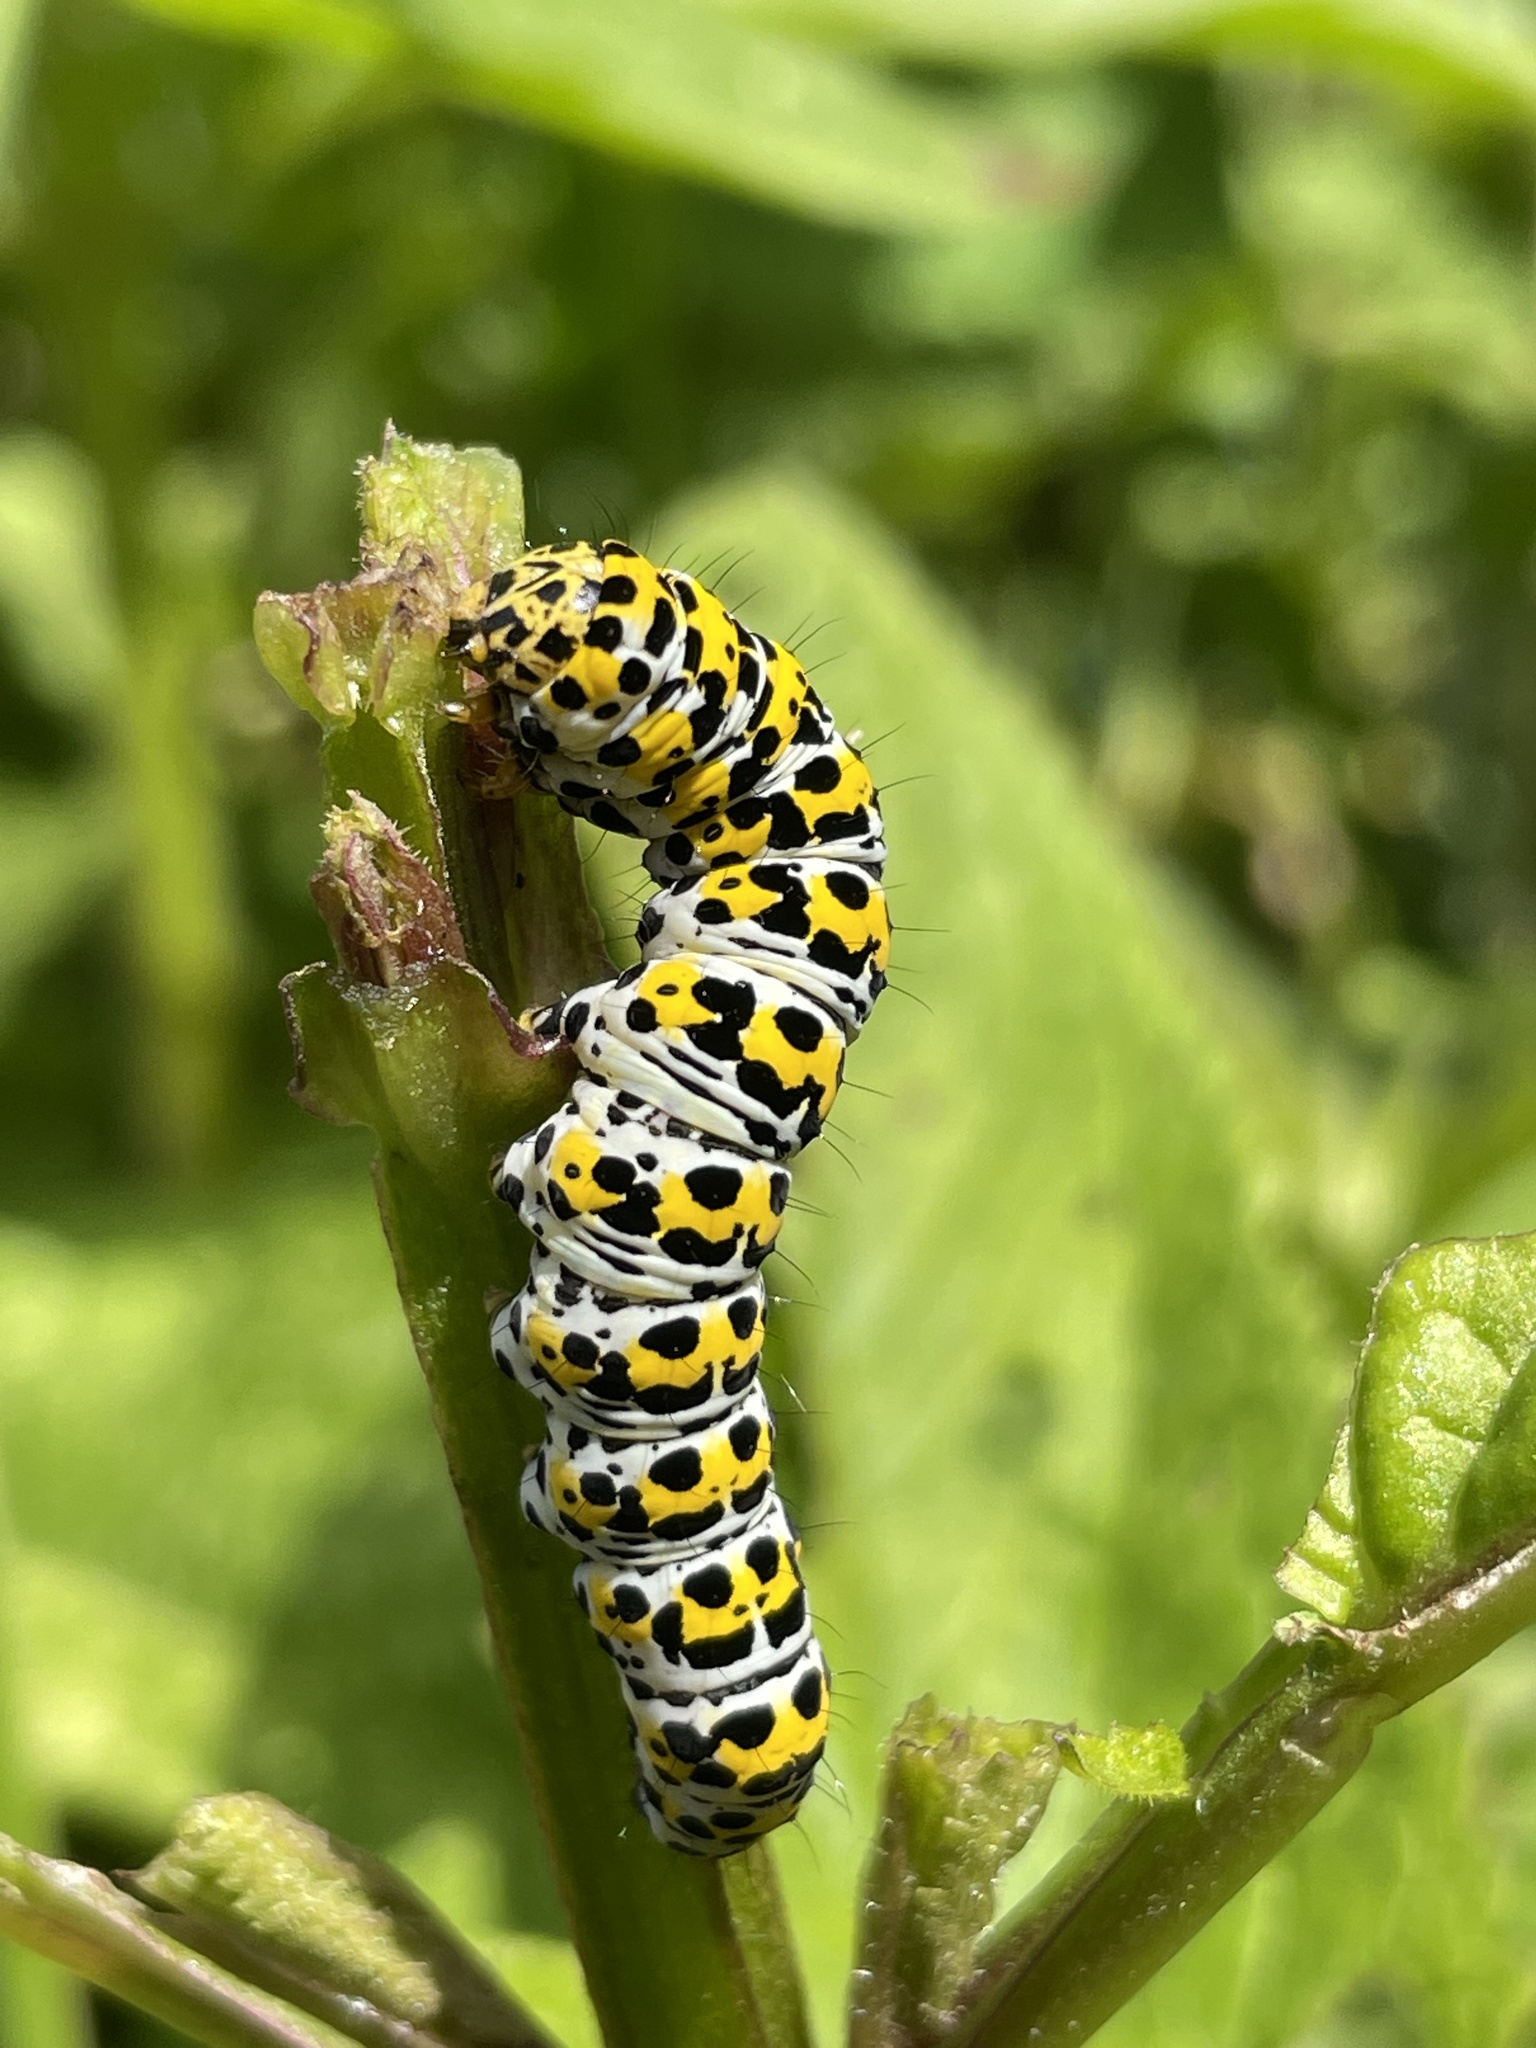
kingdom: Animalia
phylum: Arthropoda
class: Insecta
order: Lepidoptera
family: Noctuidae
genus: Cucullia
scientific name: Cucullia verbasci
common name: Mullein
